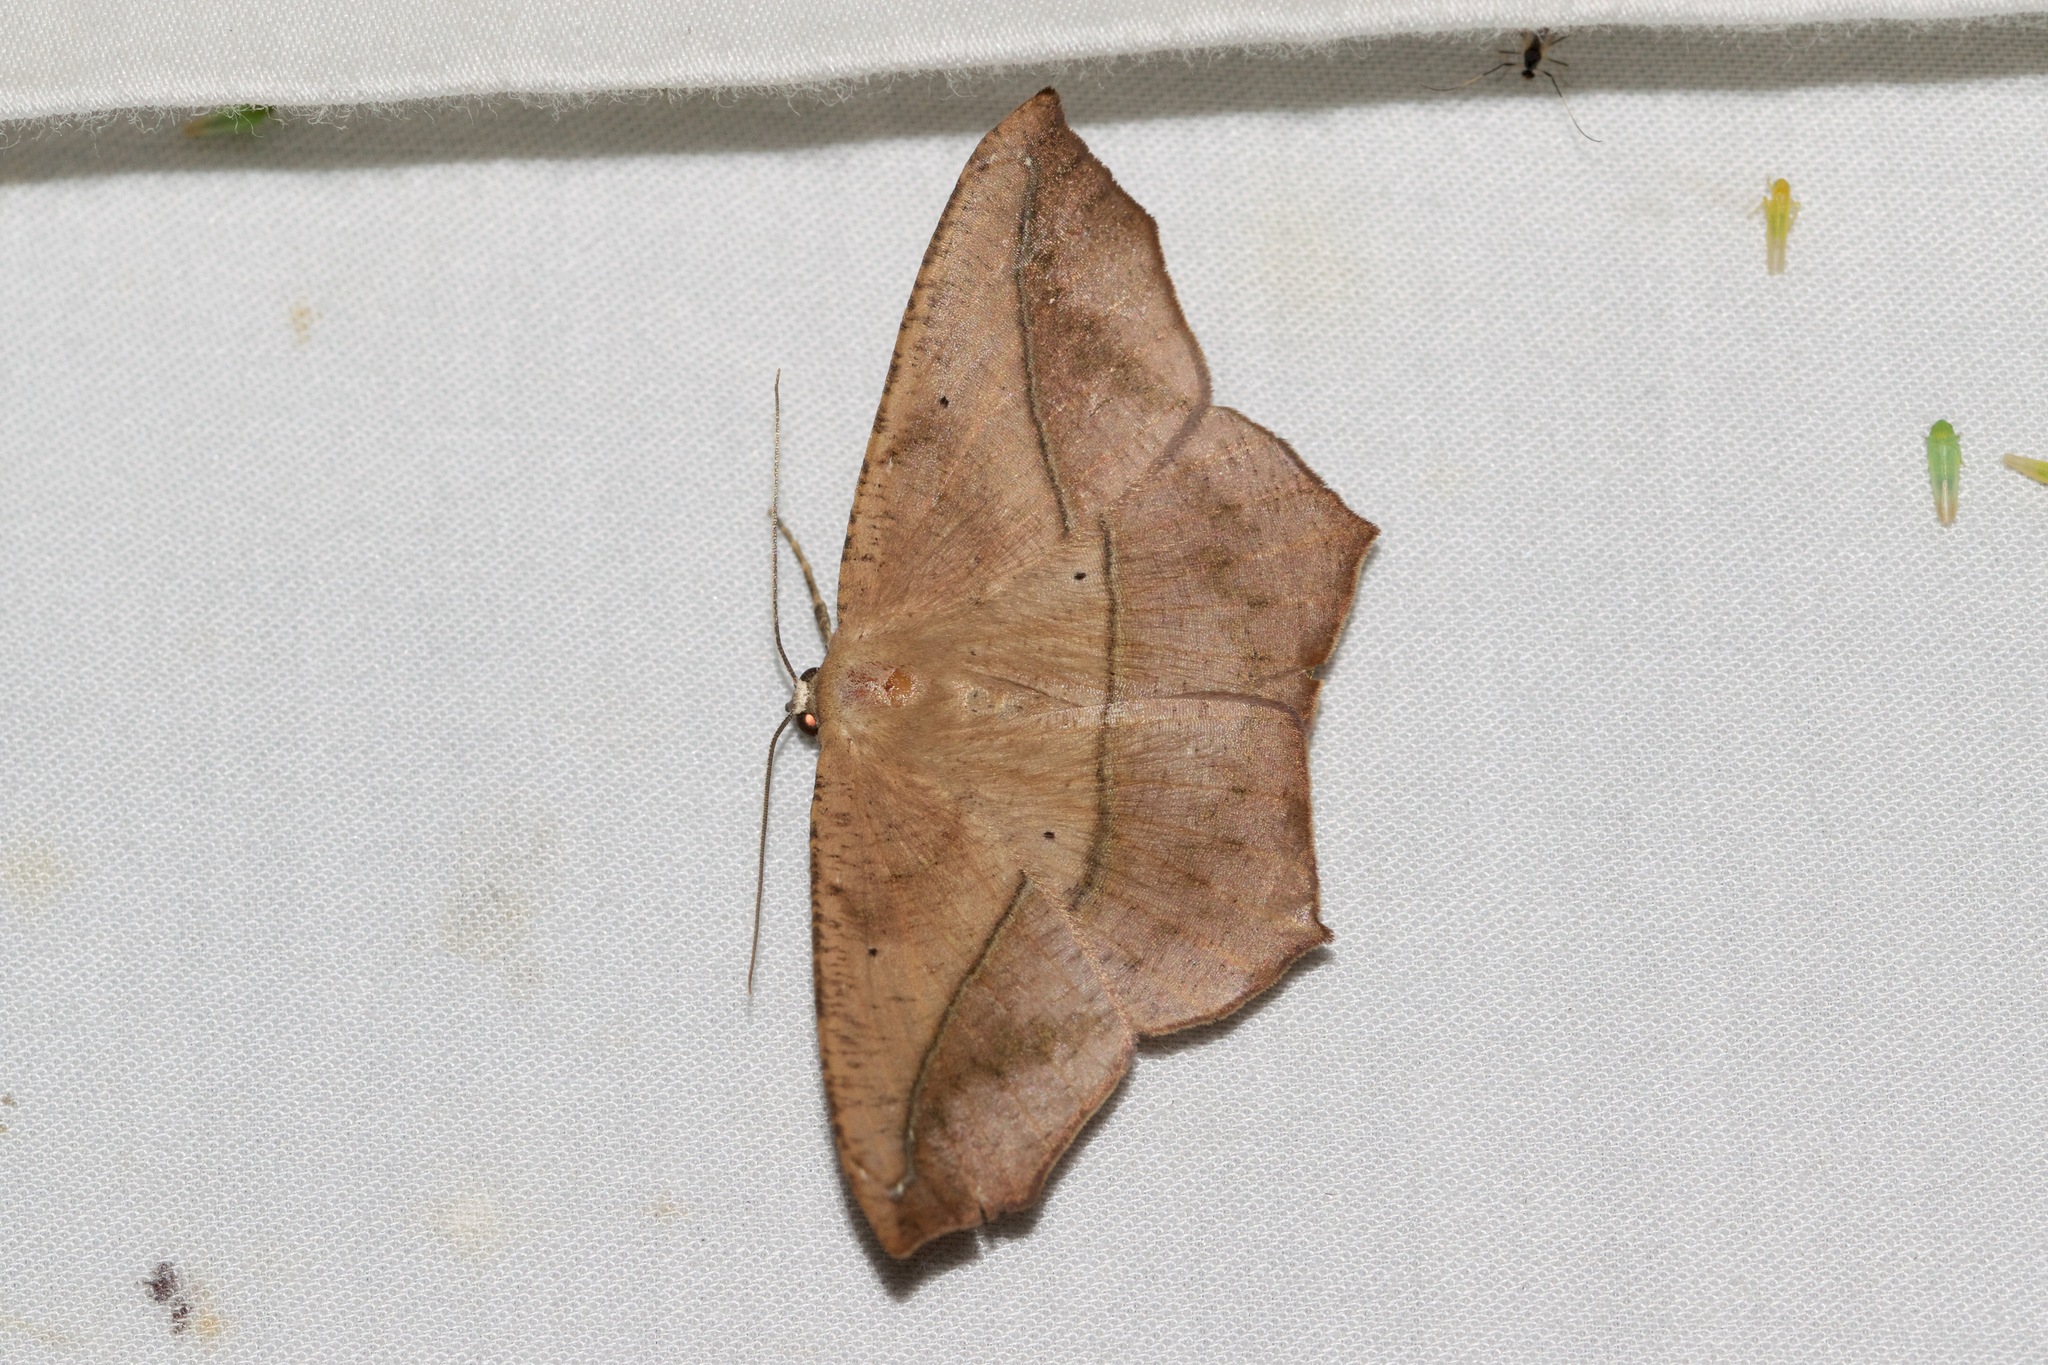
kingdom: Animalia
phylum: Arthropoda
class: Insecta
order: Lepidoptera
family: Geometridae
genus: Prochoerodes
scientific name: Prochoerodes lineola
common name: Large maple spanworm
